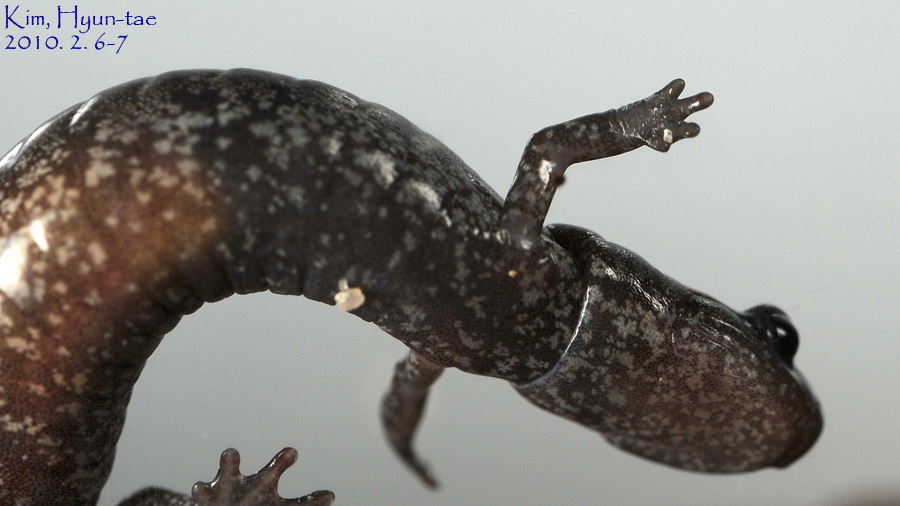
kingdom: Animalia
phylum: Chordata
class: Amphibia
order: Caudata
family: Plethodontidae
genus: Karsenia
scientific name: Karsenia koreana
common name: Korean crevice salamander
